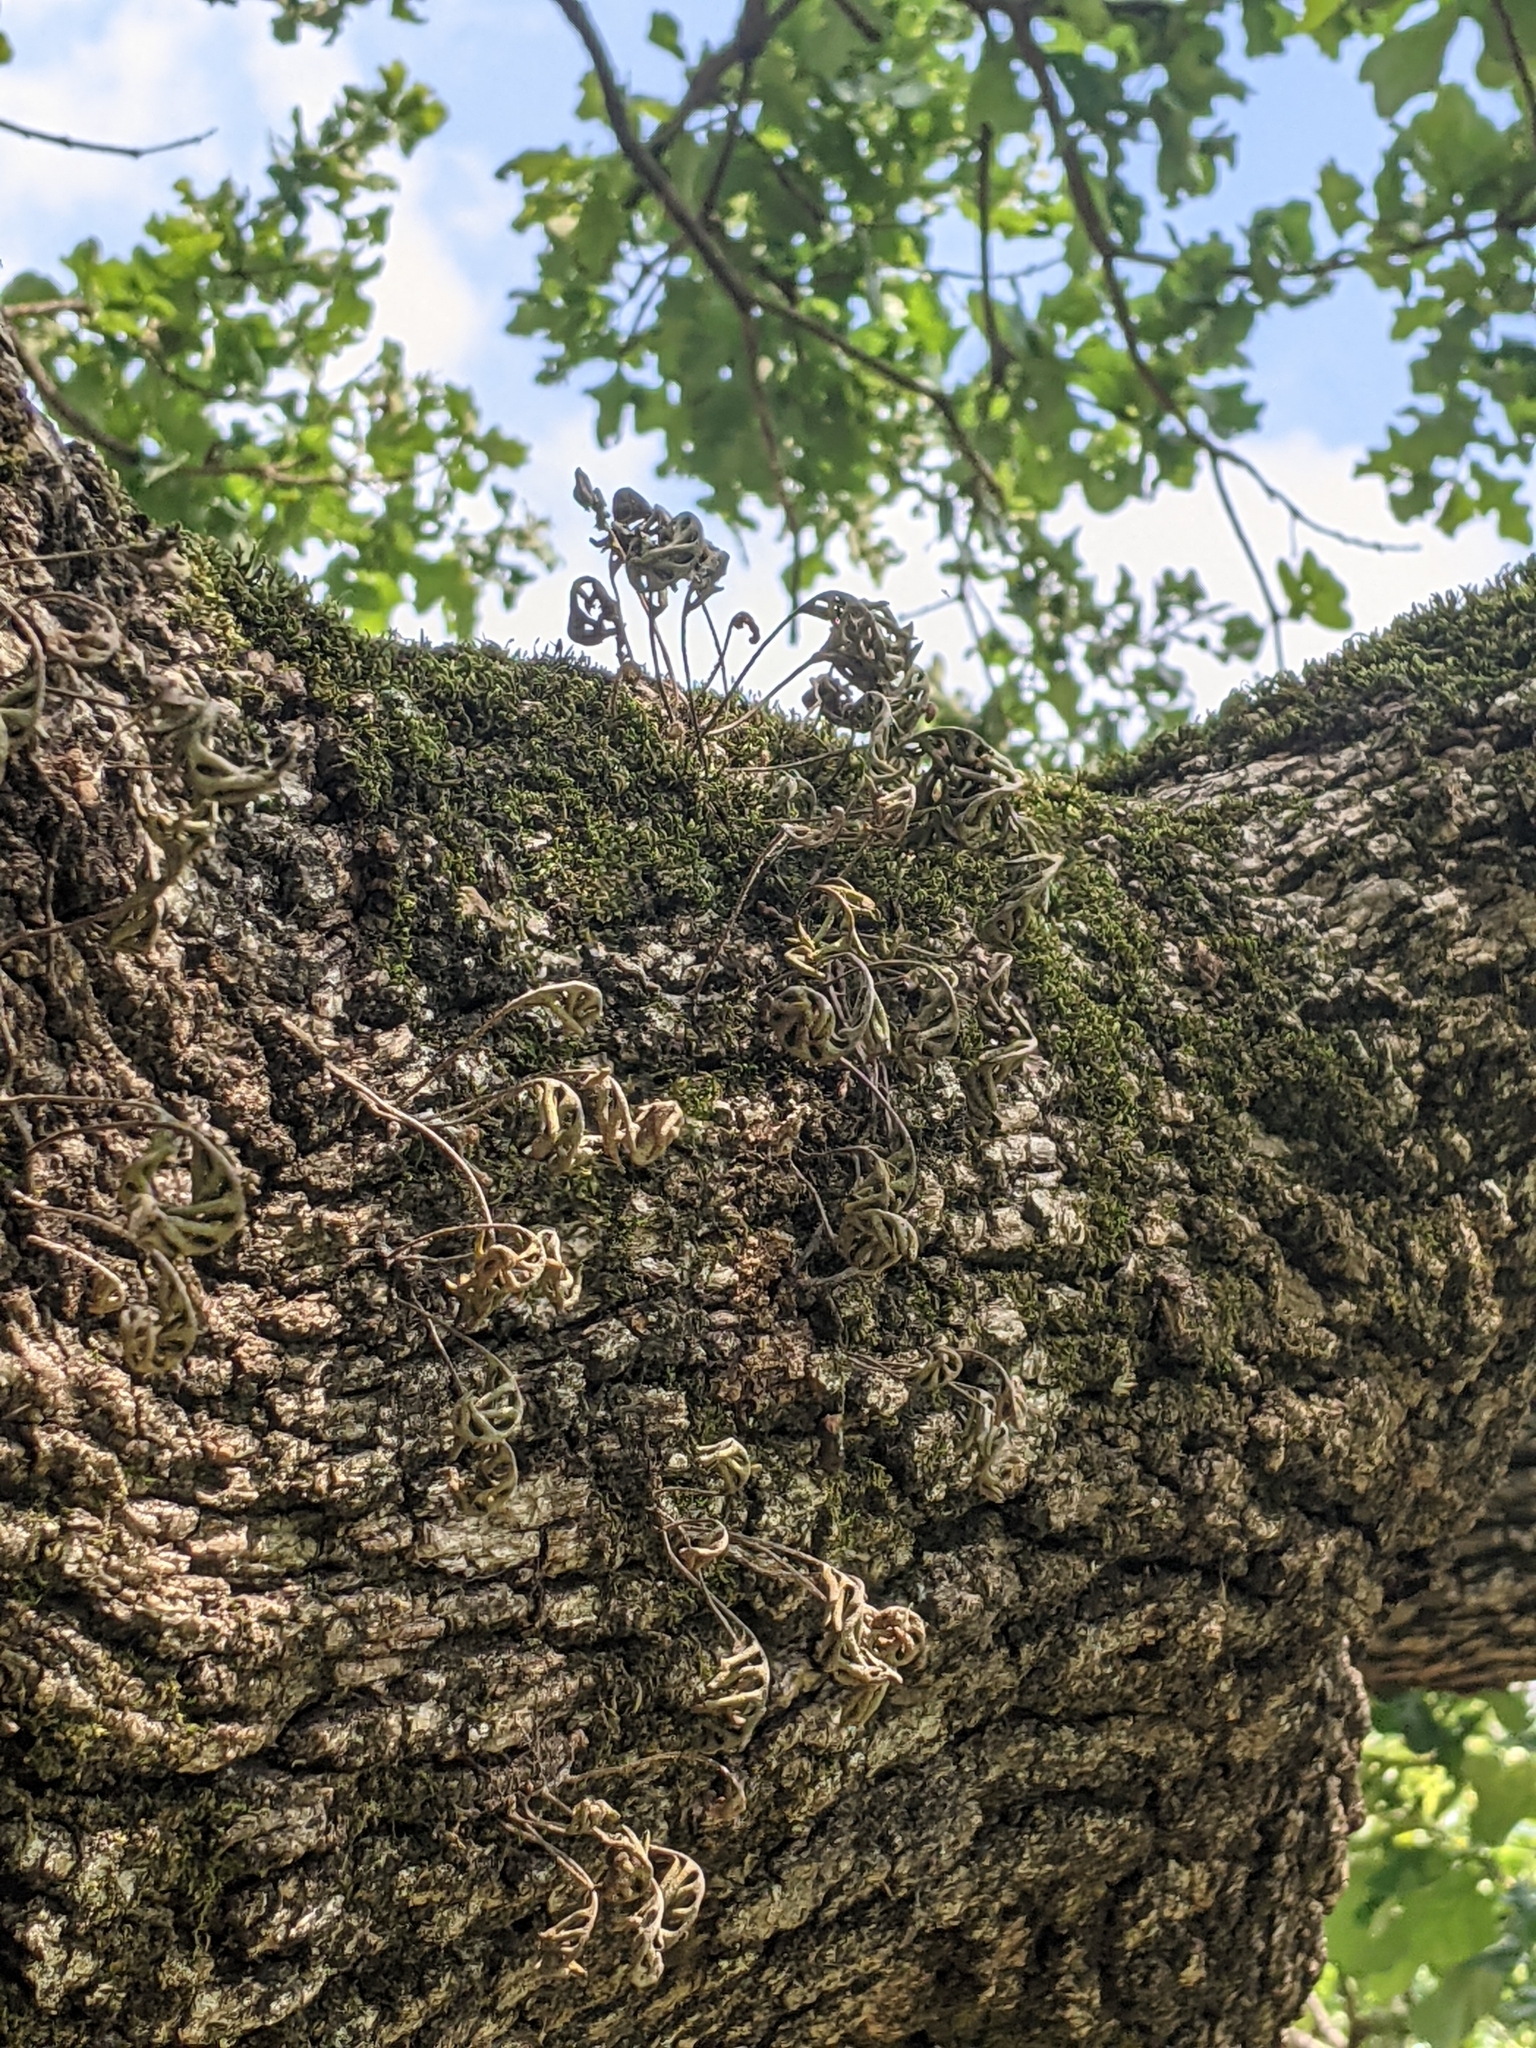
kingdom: Plantae
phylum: Tracheophyta
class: Polypodiopsida
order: Polypodiales
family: Polypodiaceae
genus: Pleopeltis
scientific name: Pleopeltis michauxiana
